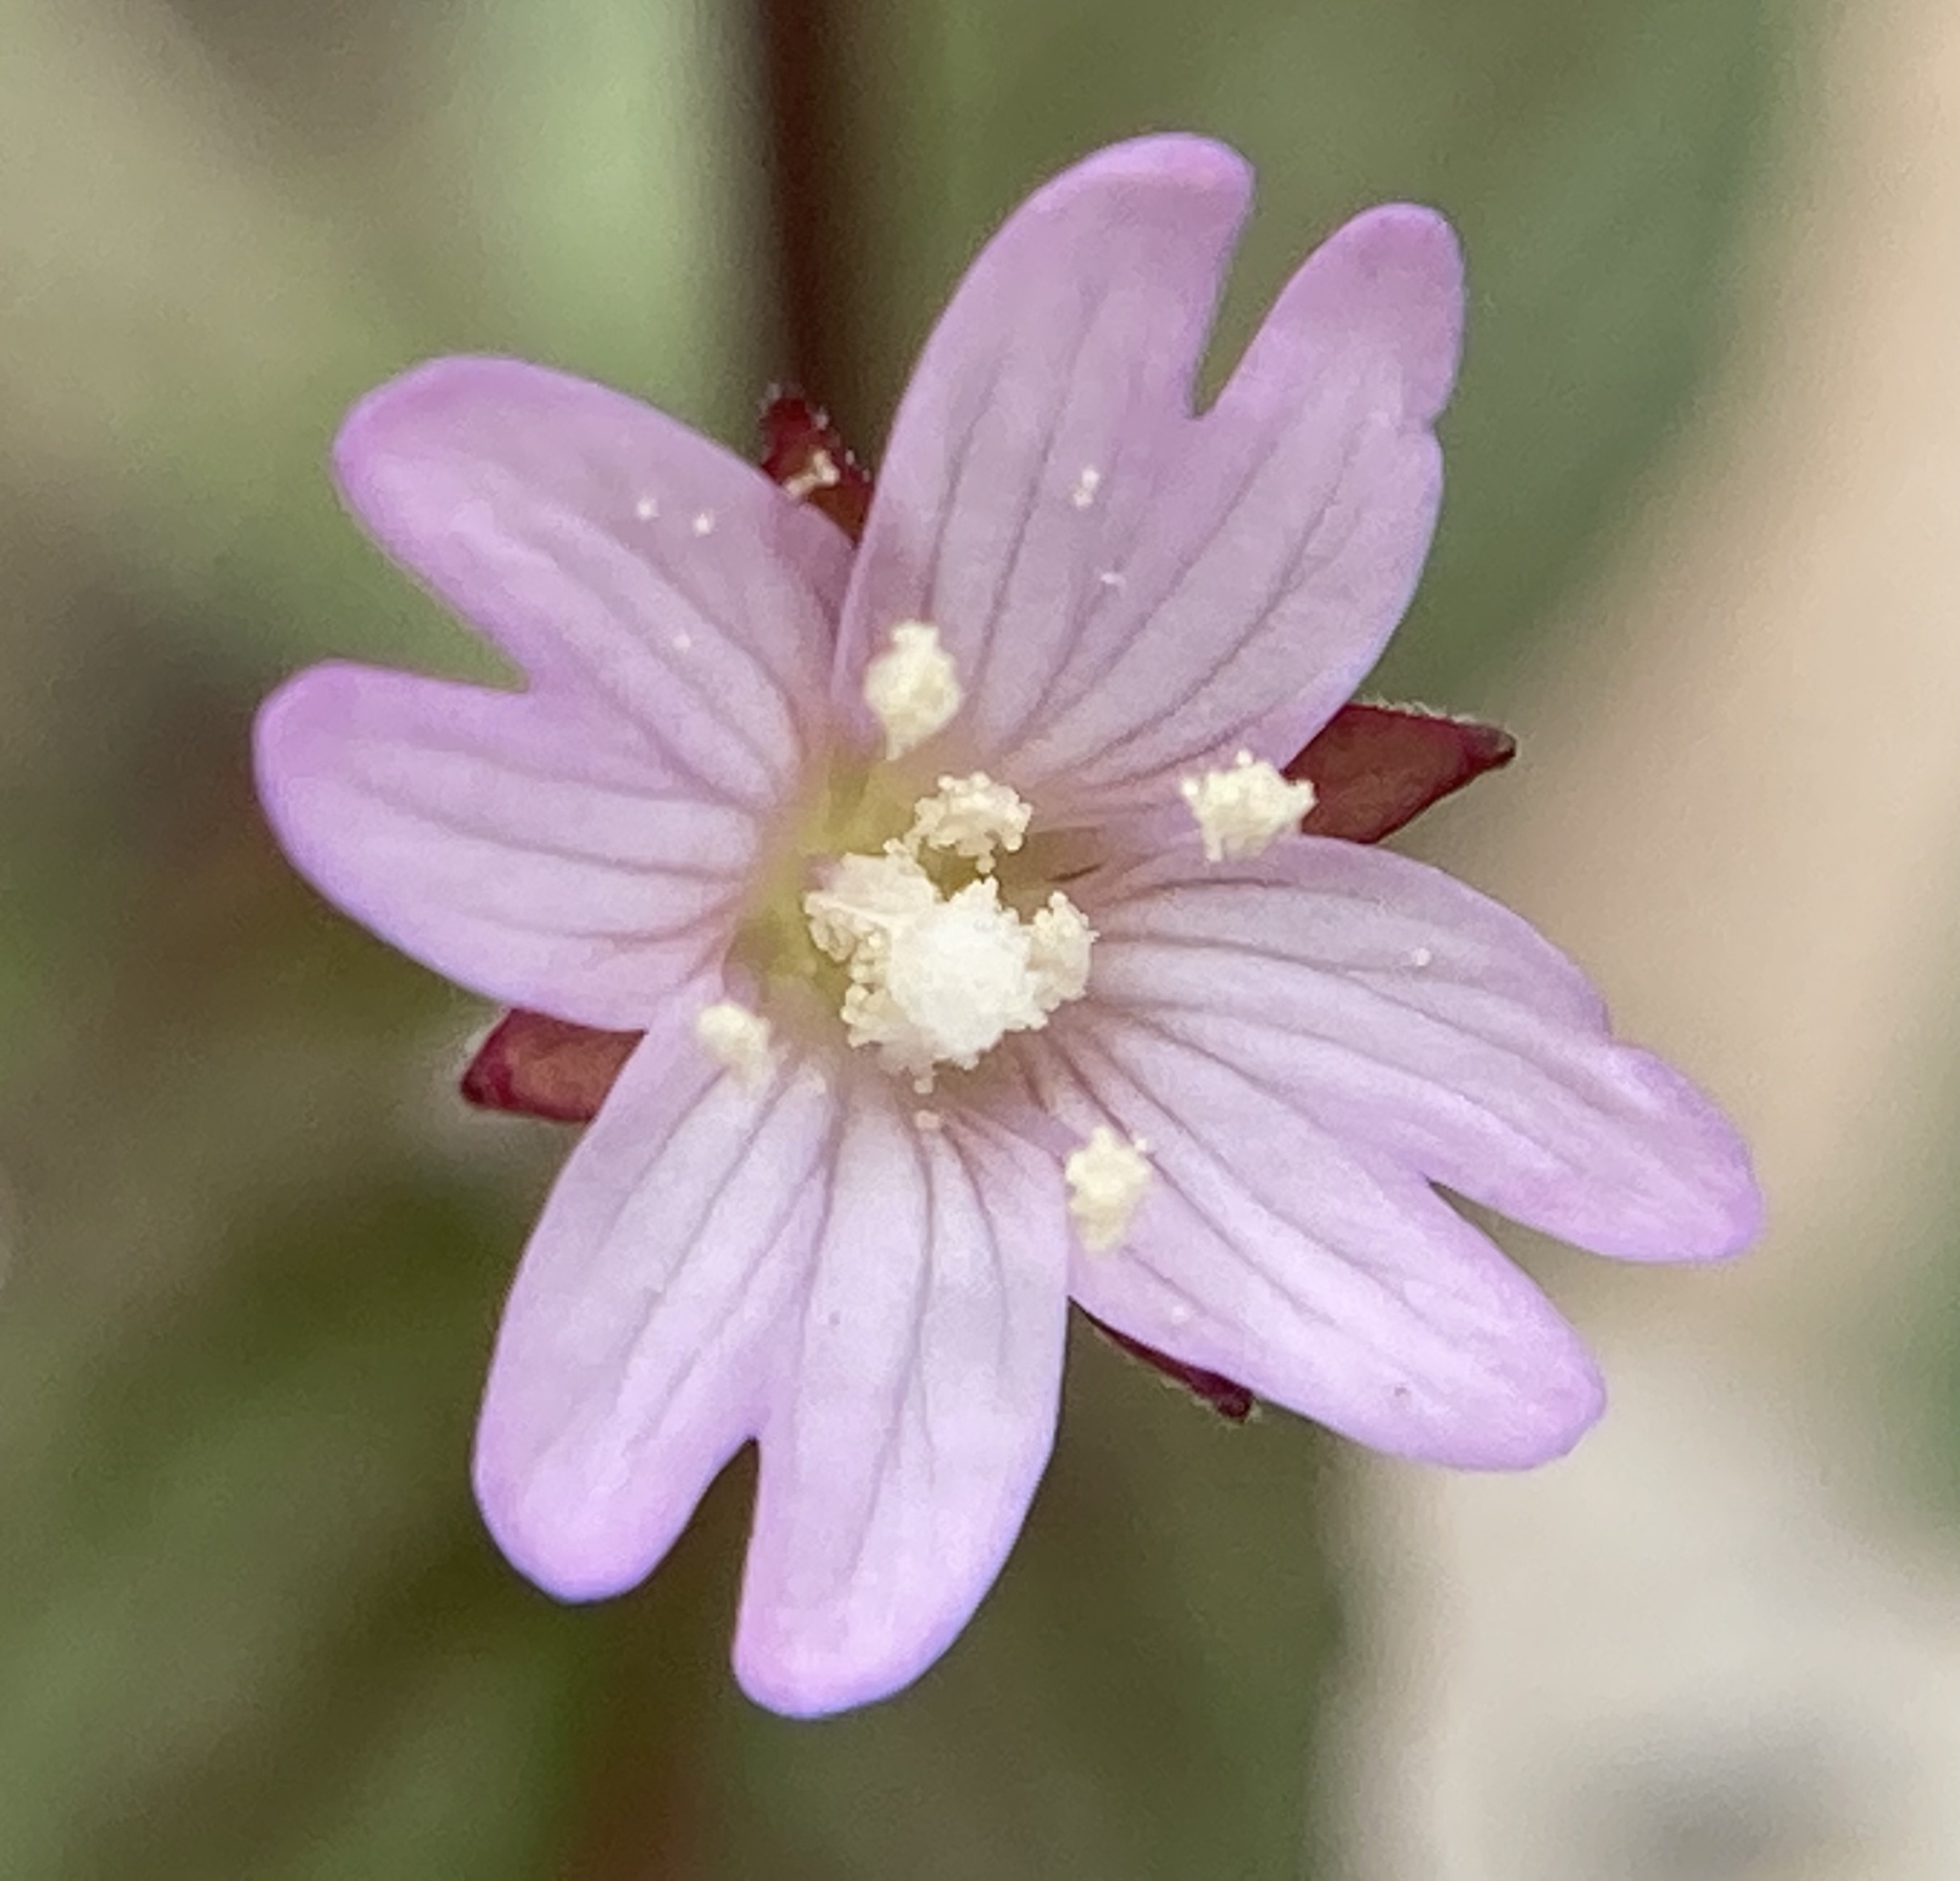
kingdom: Plantae
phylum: Tracheophyta
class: Magnoliopsida
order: Myrtales
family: Onagraceae
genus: Epilobium
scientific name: Epilobium denticulatum
